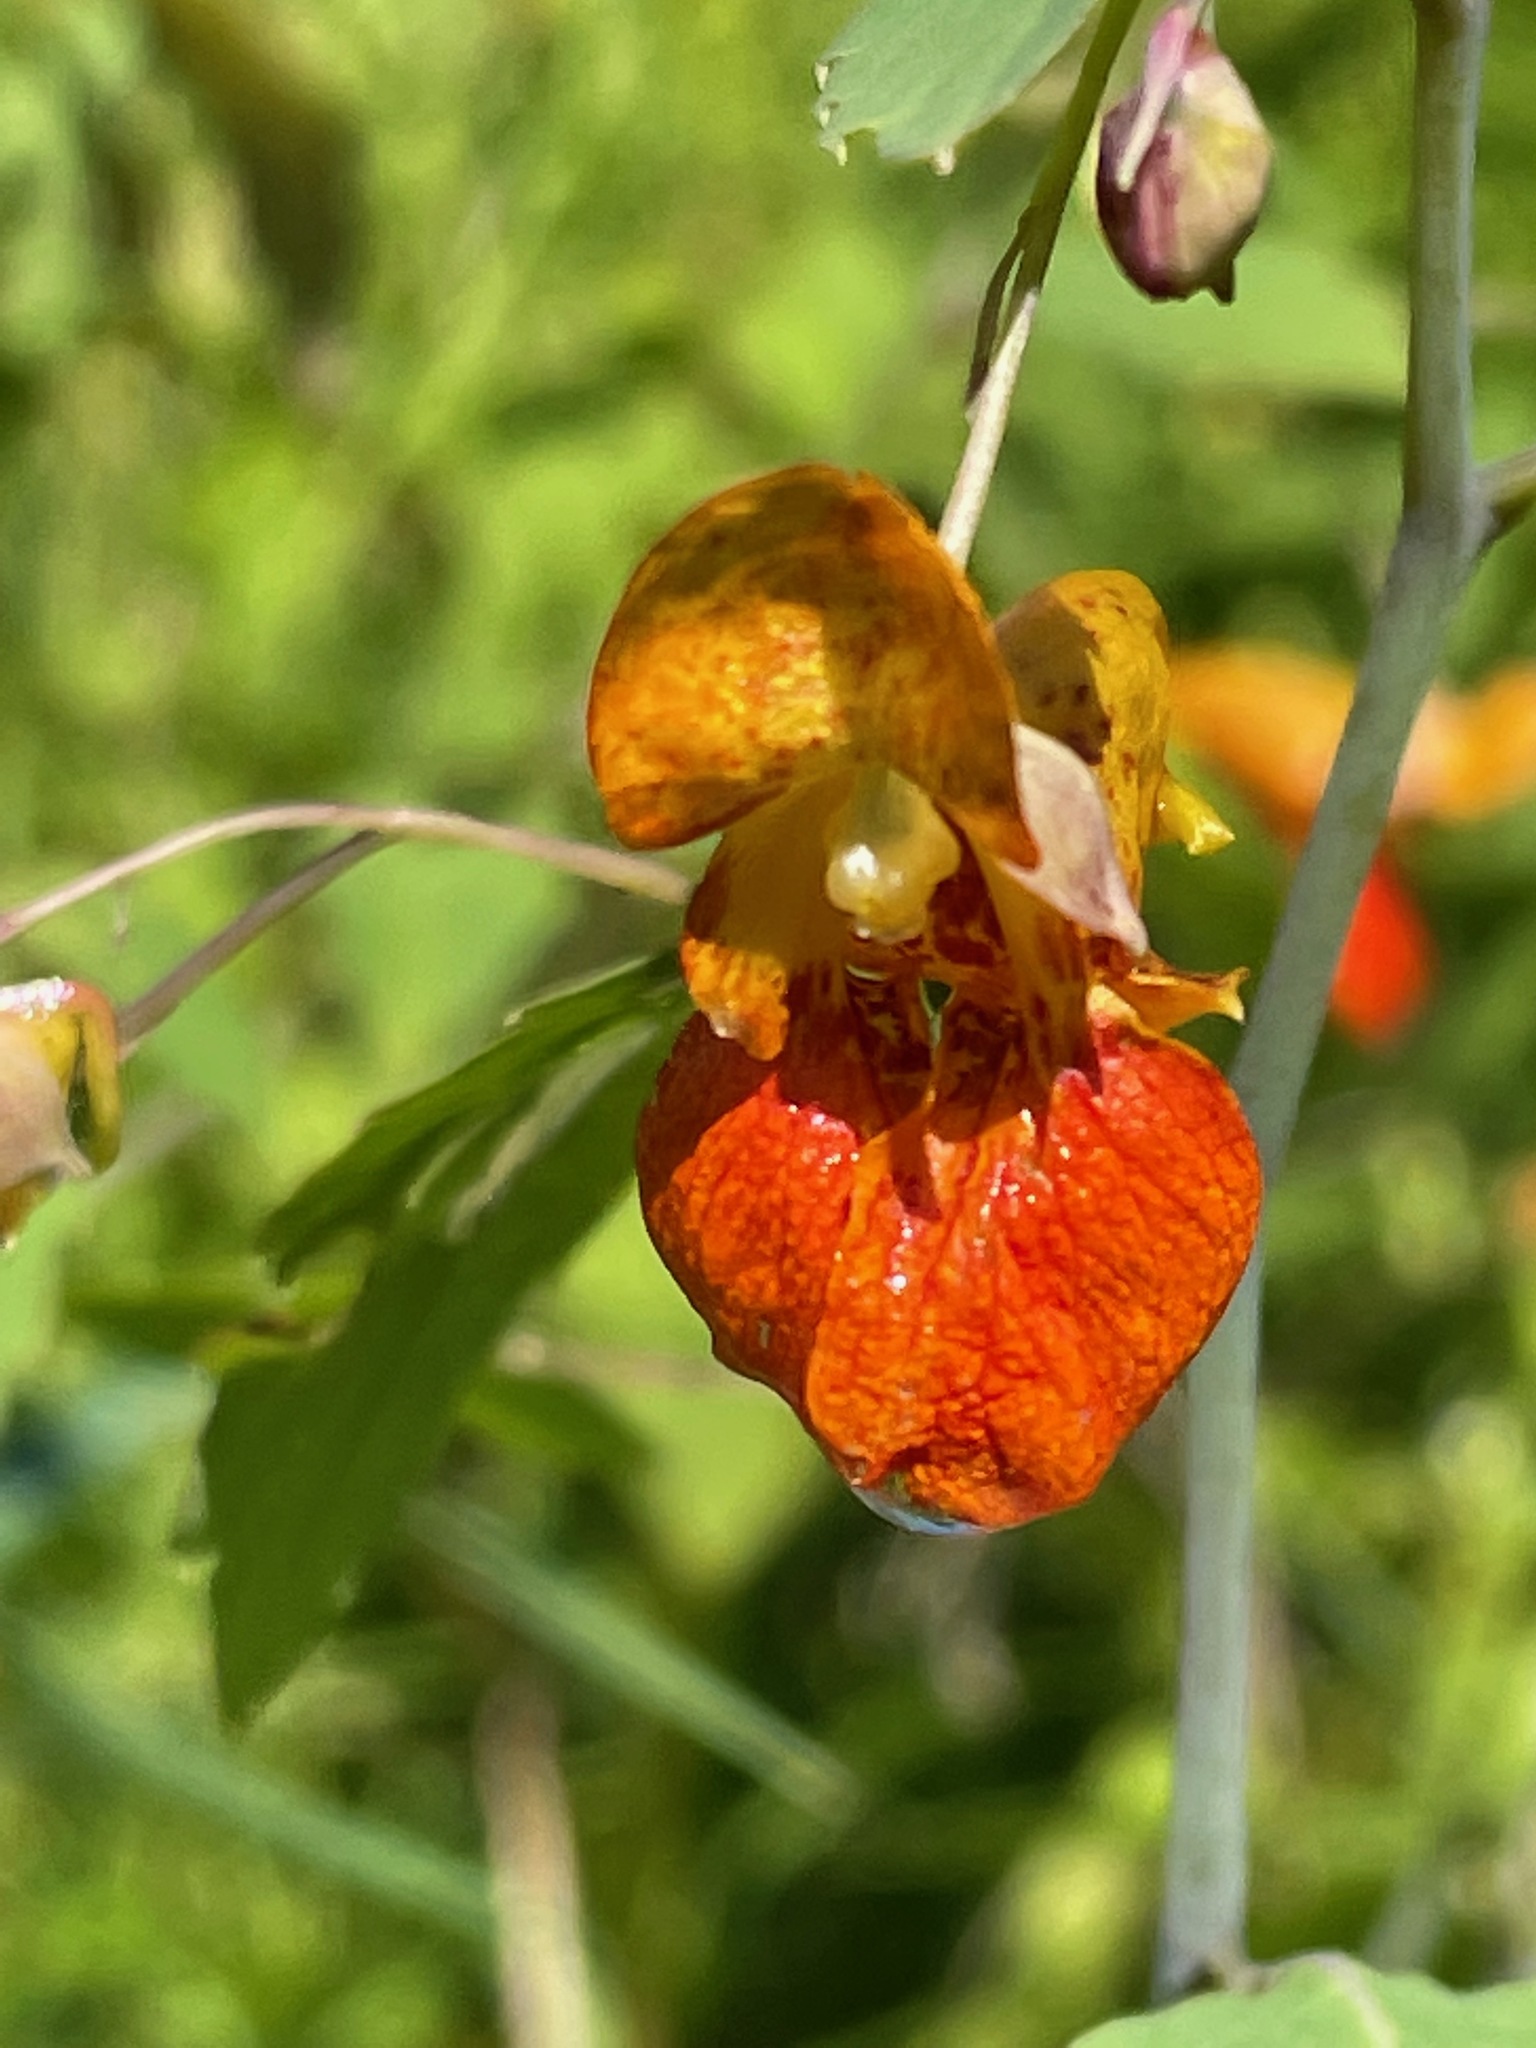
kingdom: Plantae
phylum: Tracheophyta
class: Magnoliopsida
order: Ericales
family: Balsaminaceae
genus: Impatiens
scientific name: Impatiens capensis
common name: Orange balsam
